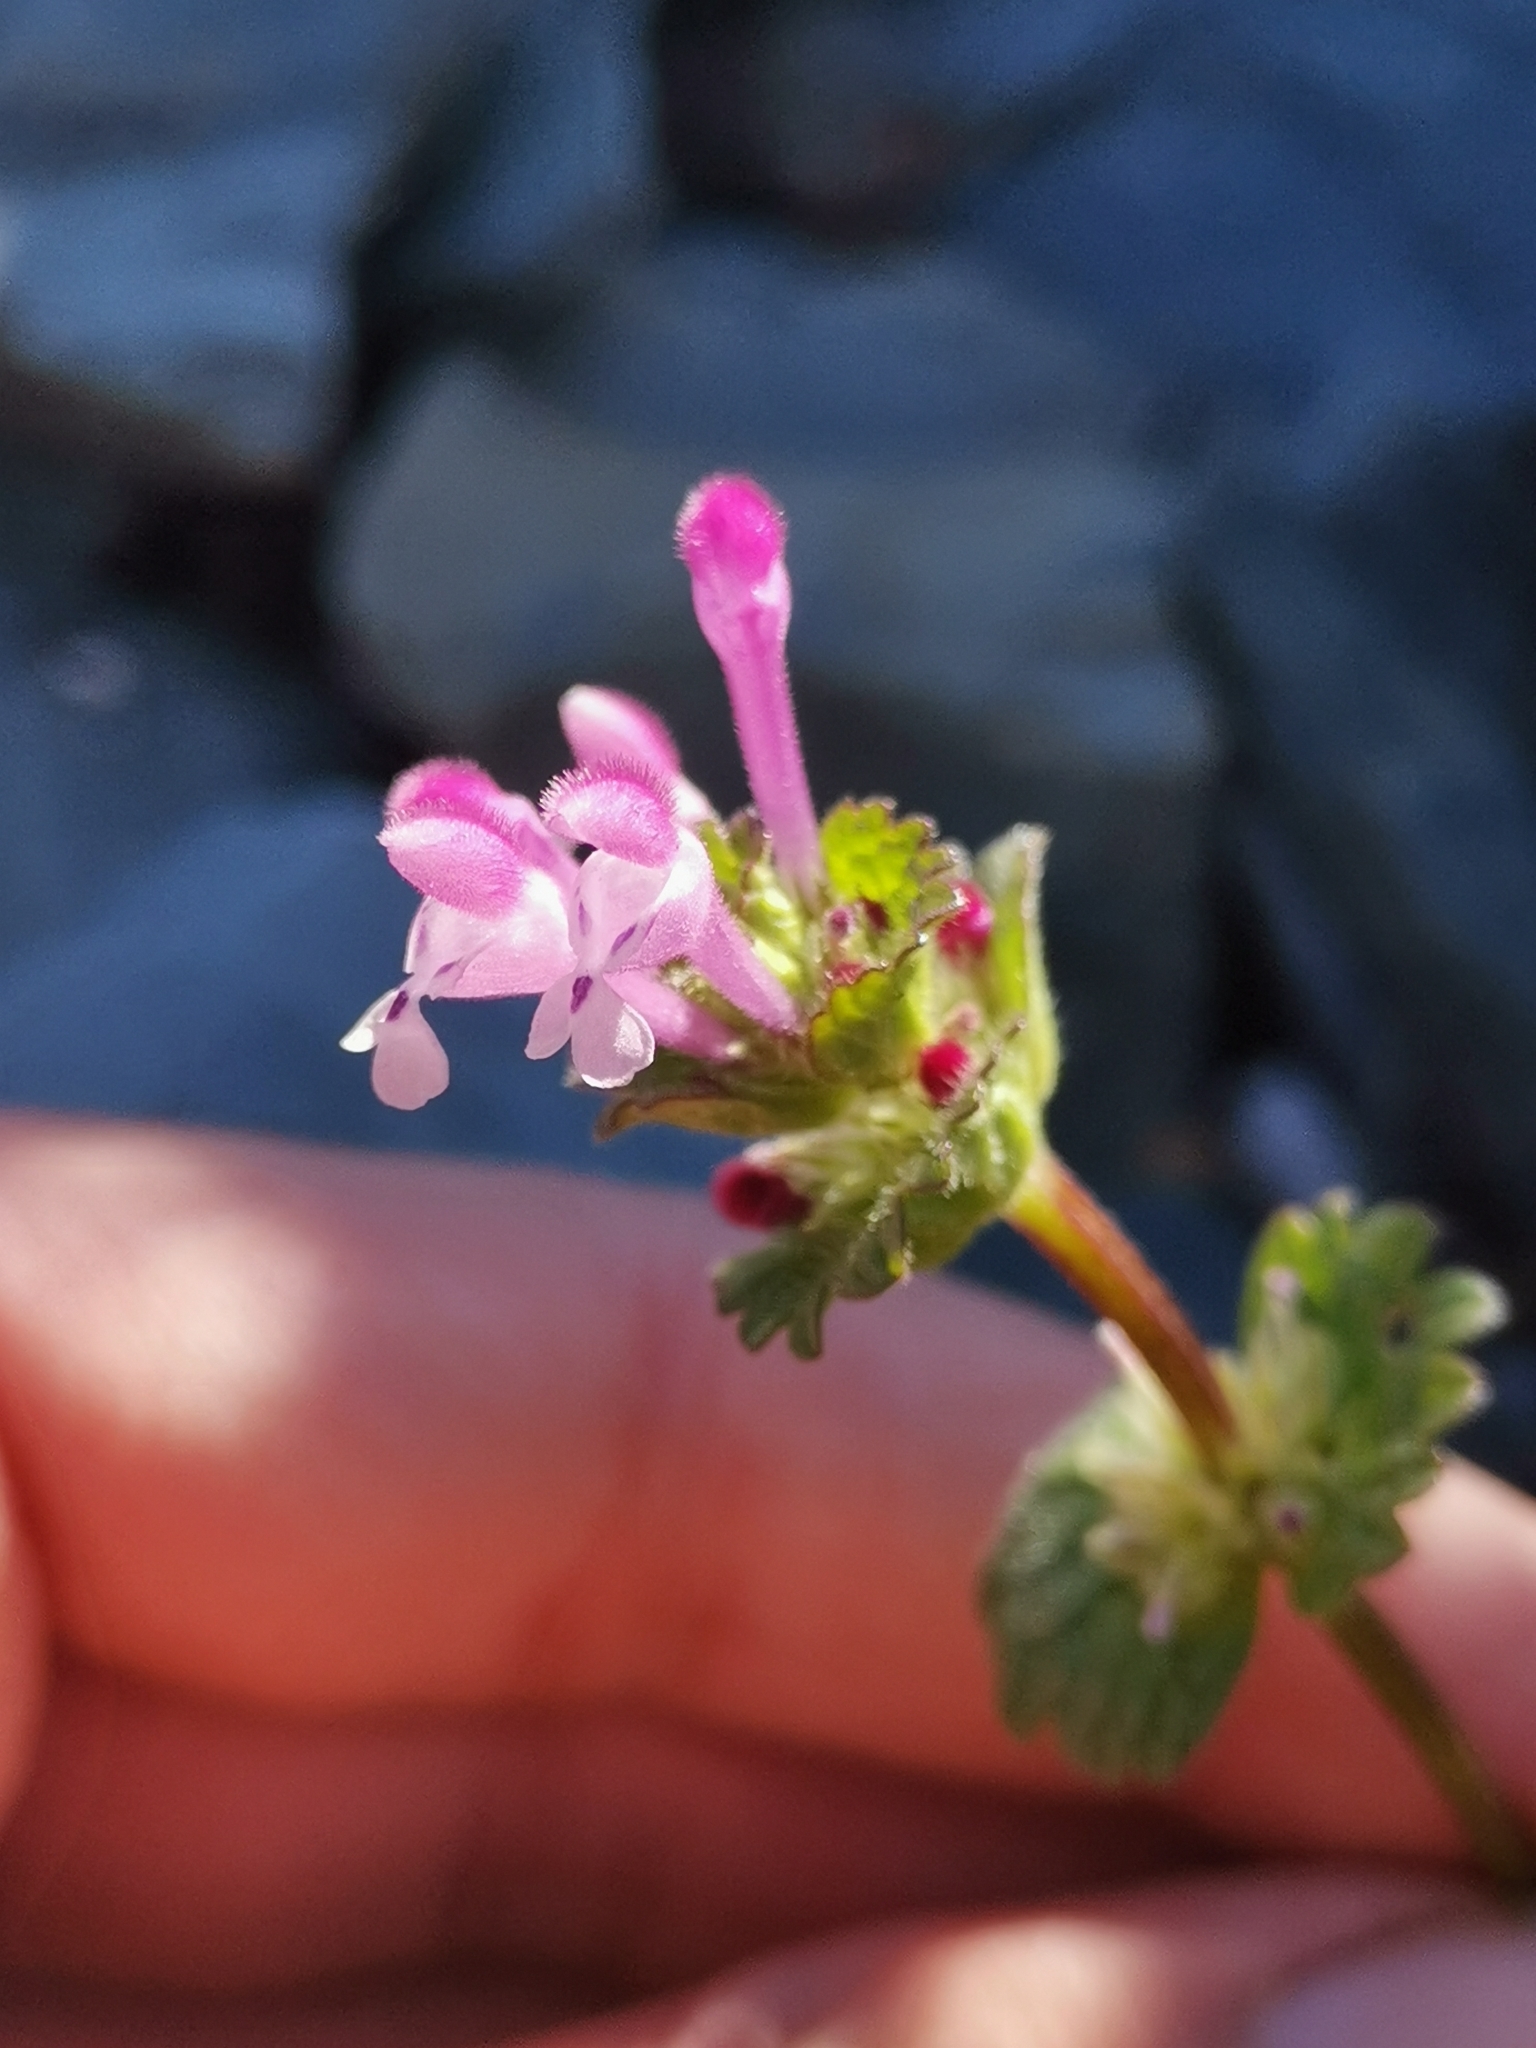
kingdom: Plantae
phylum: Tracheophyta
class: Magnoliopsida
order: Lamiales
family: Lamiaceae
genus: Lamium
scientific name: Lamium amplexicaule
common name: Henbit dead-nettle
